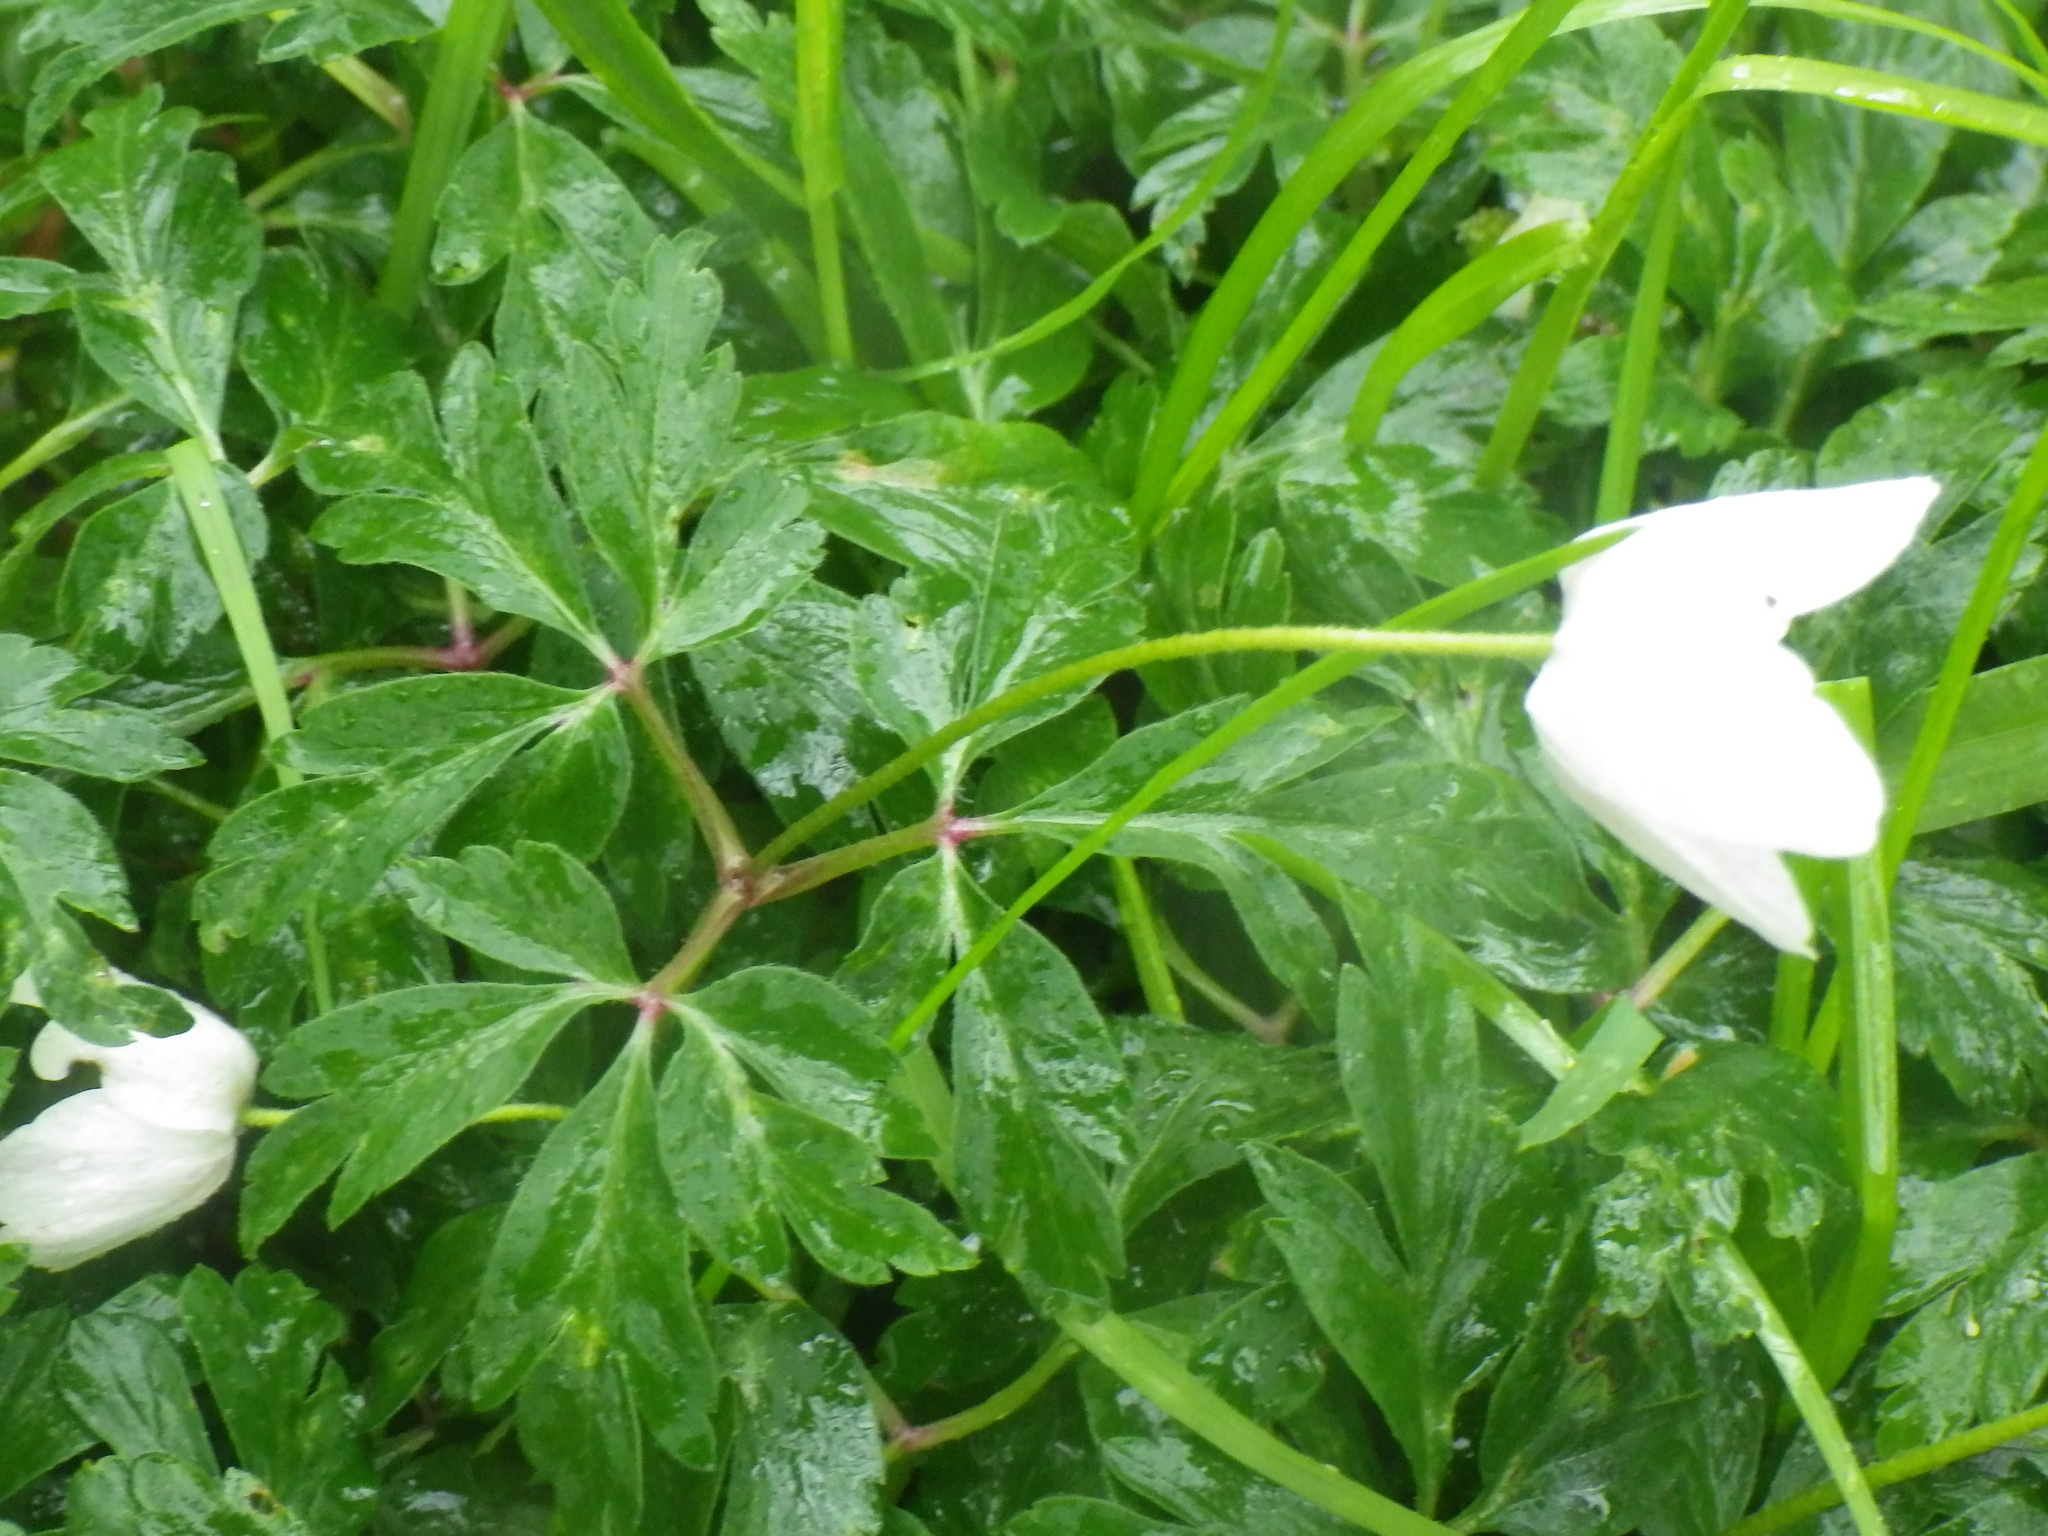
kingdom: Plantae
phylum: Tracheophyta
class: Magnoliopsida
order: Ranunculales
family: Ranunculaceae
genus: Anemone
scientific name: Anemone nemorosa
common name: Wood anemone
